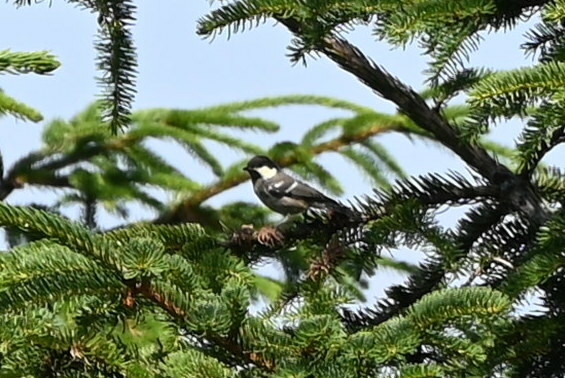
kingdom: Animalia
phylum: Chordata
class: Aves
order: Passeriformes
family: Paridae
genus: Periparus
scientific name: Periparus ater
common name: Coal tit
